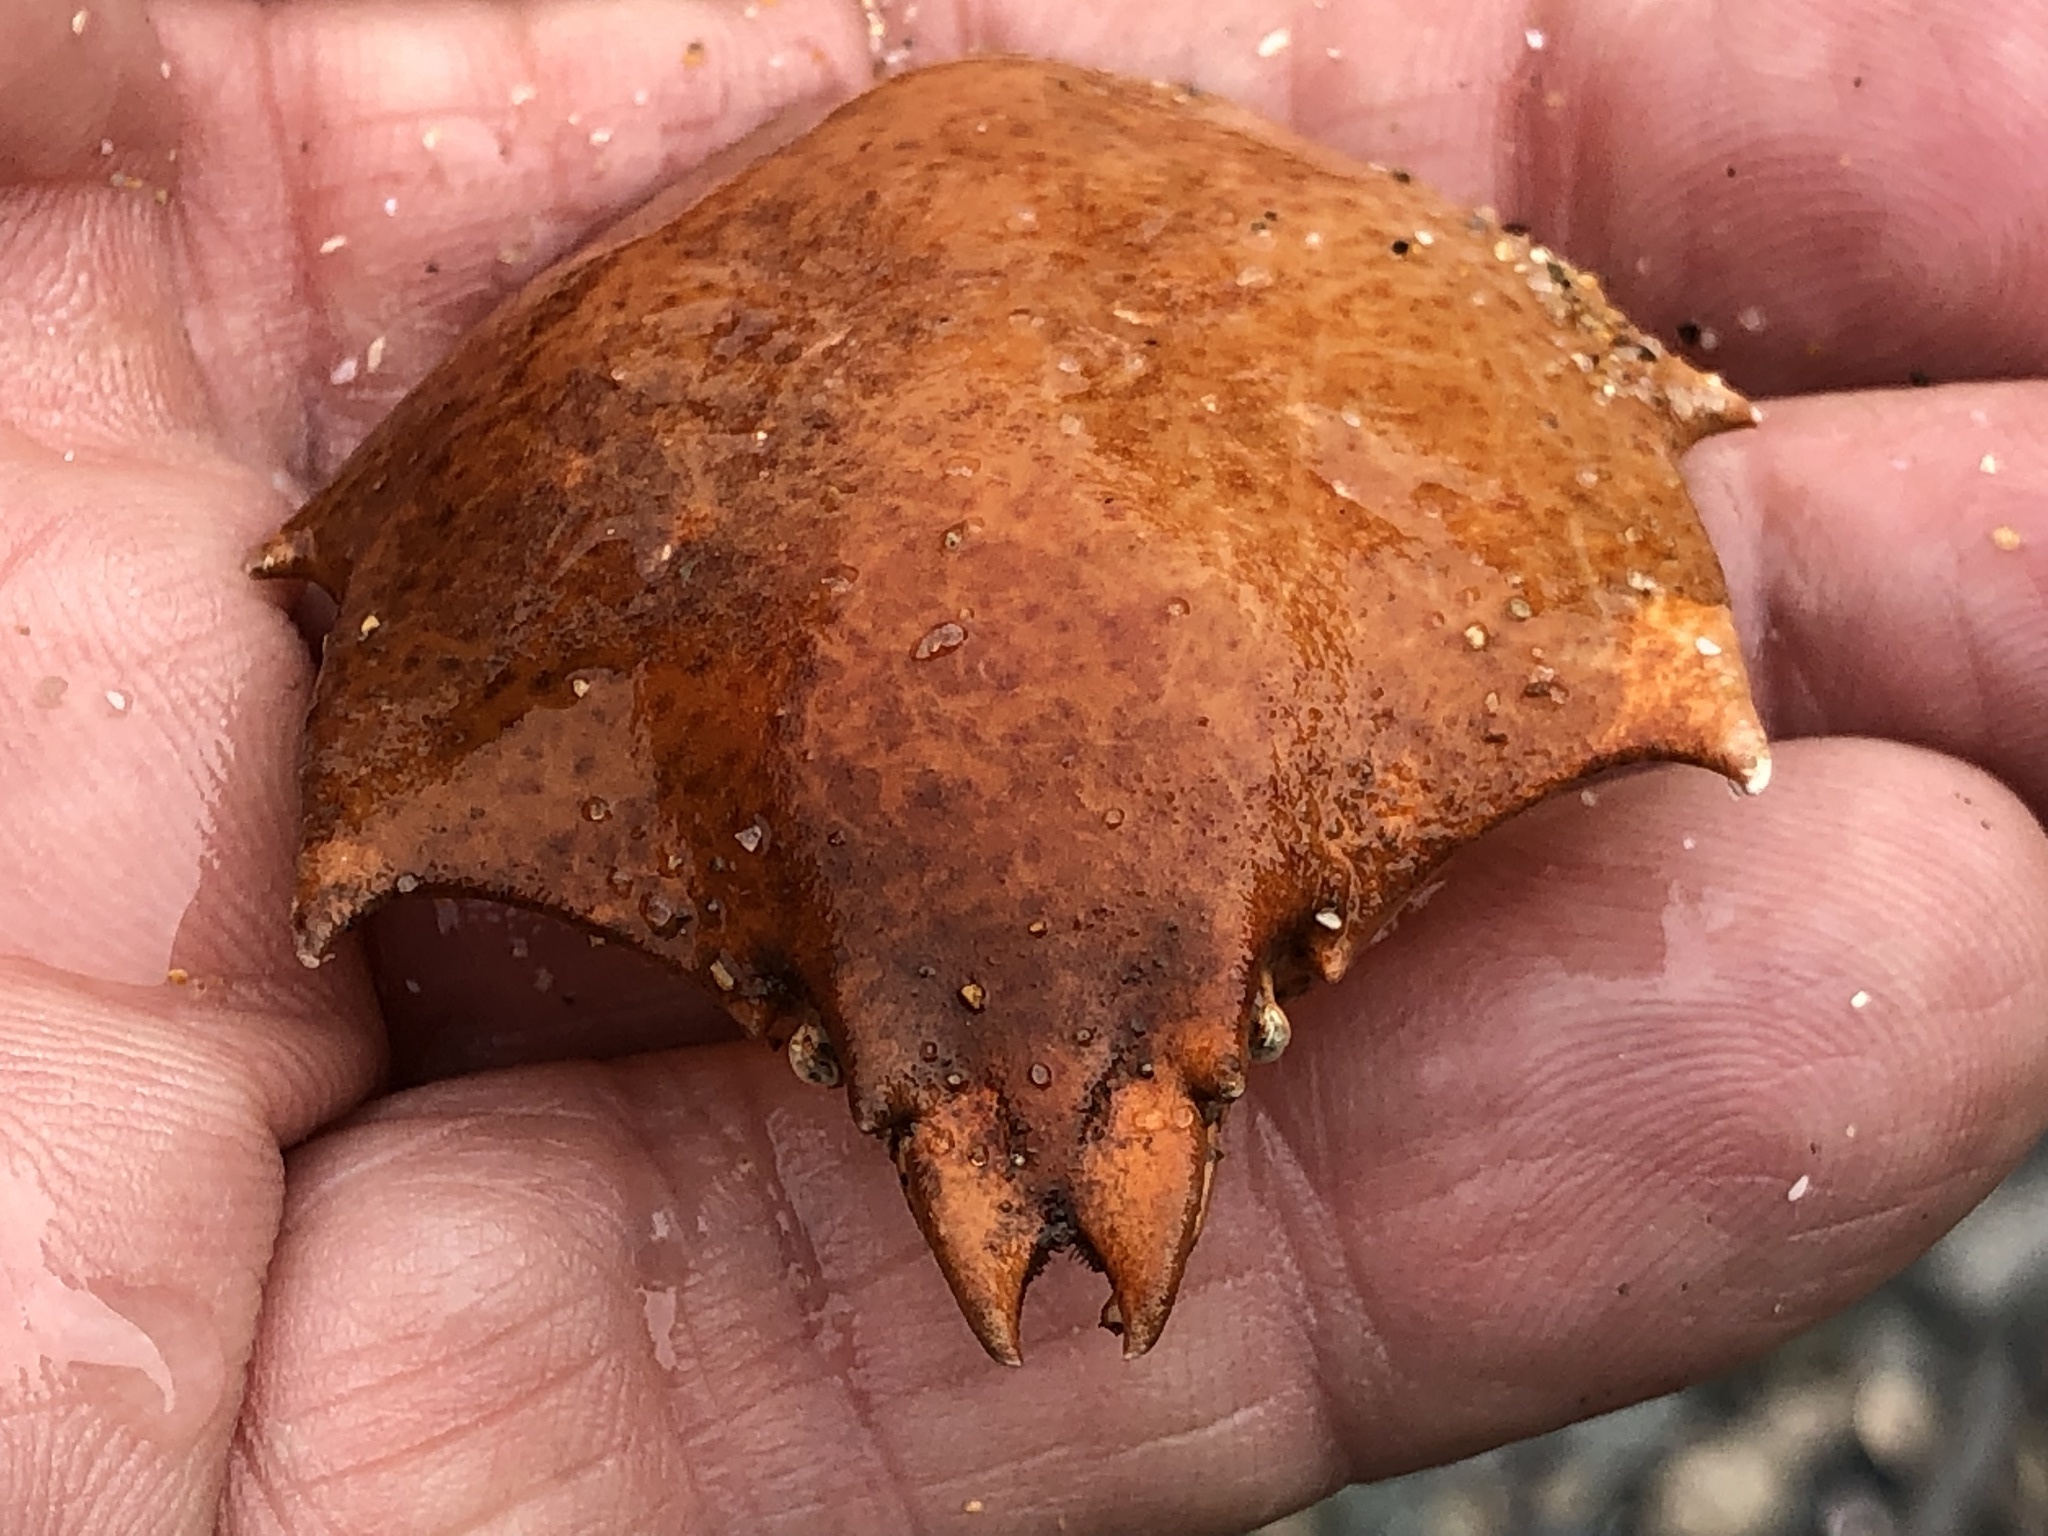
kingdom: Animalia
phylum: Arthropoda
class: Malacostraca
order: Decapoda
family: Epialtidae
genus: Pugettia
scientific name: Pugettia producta
